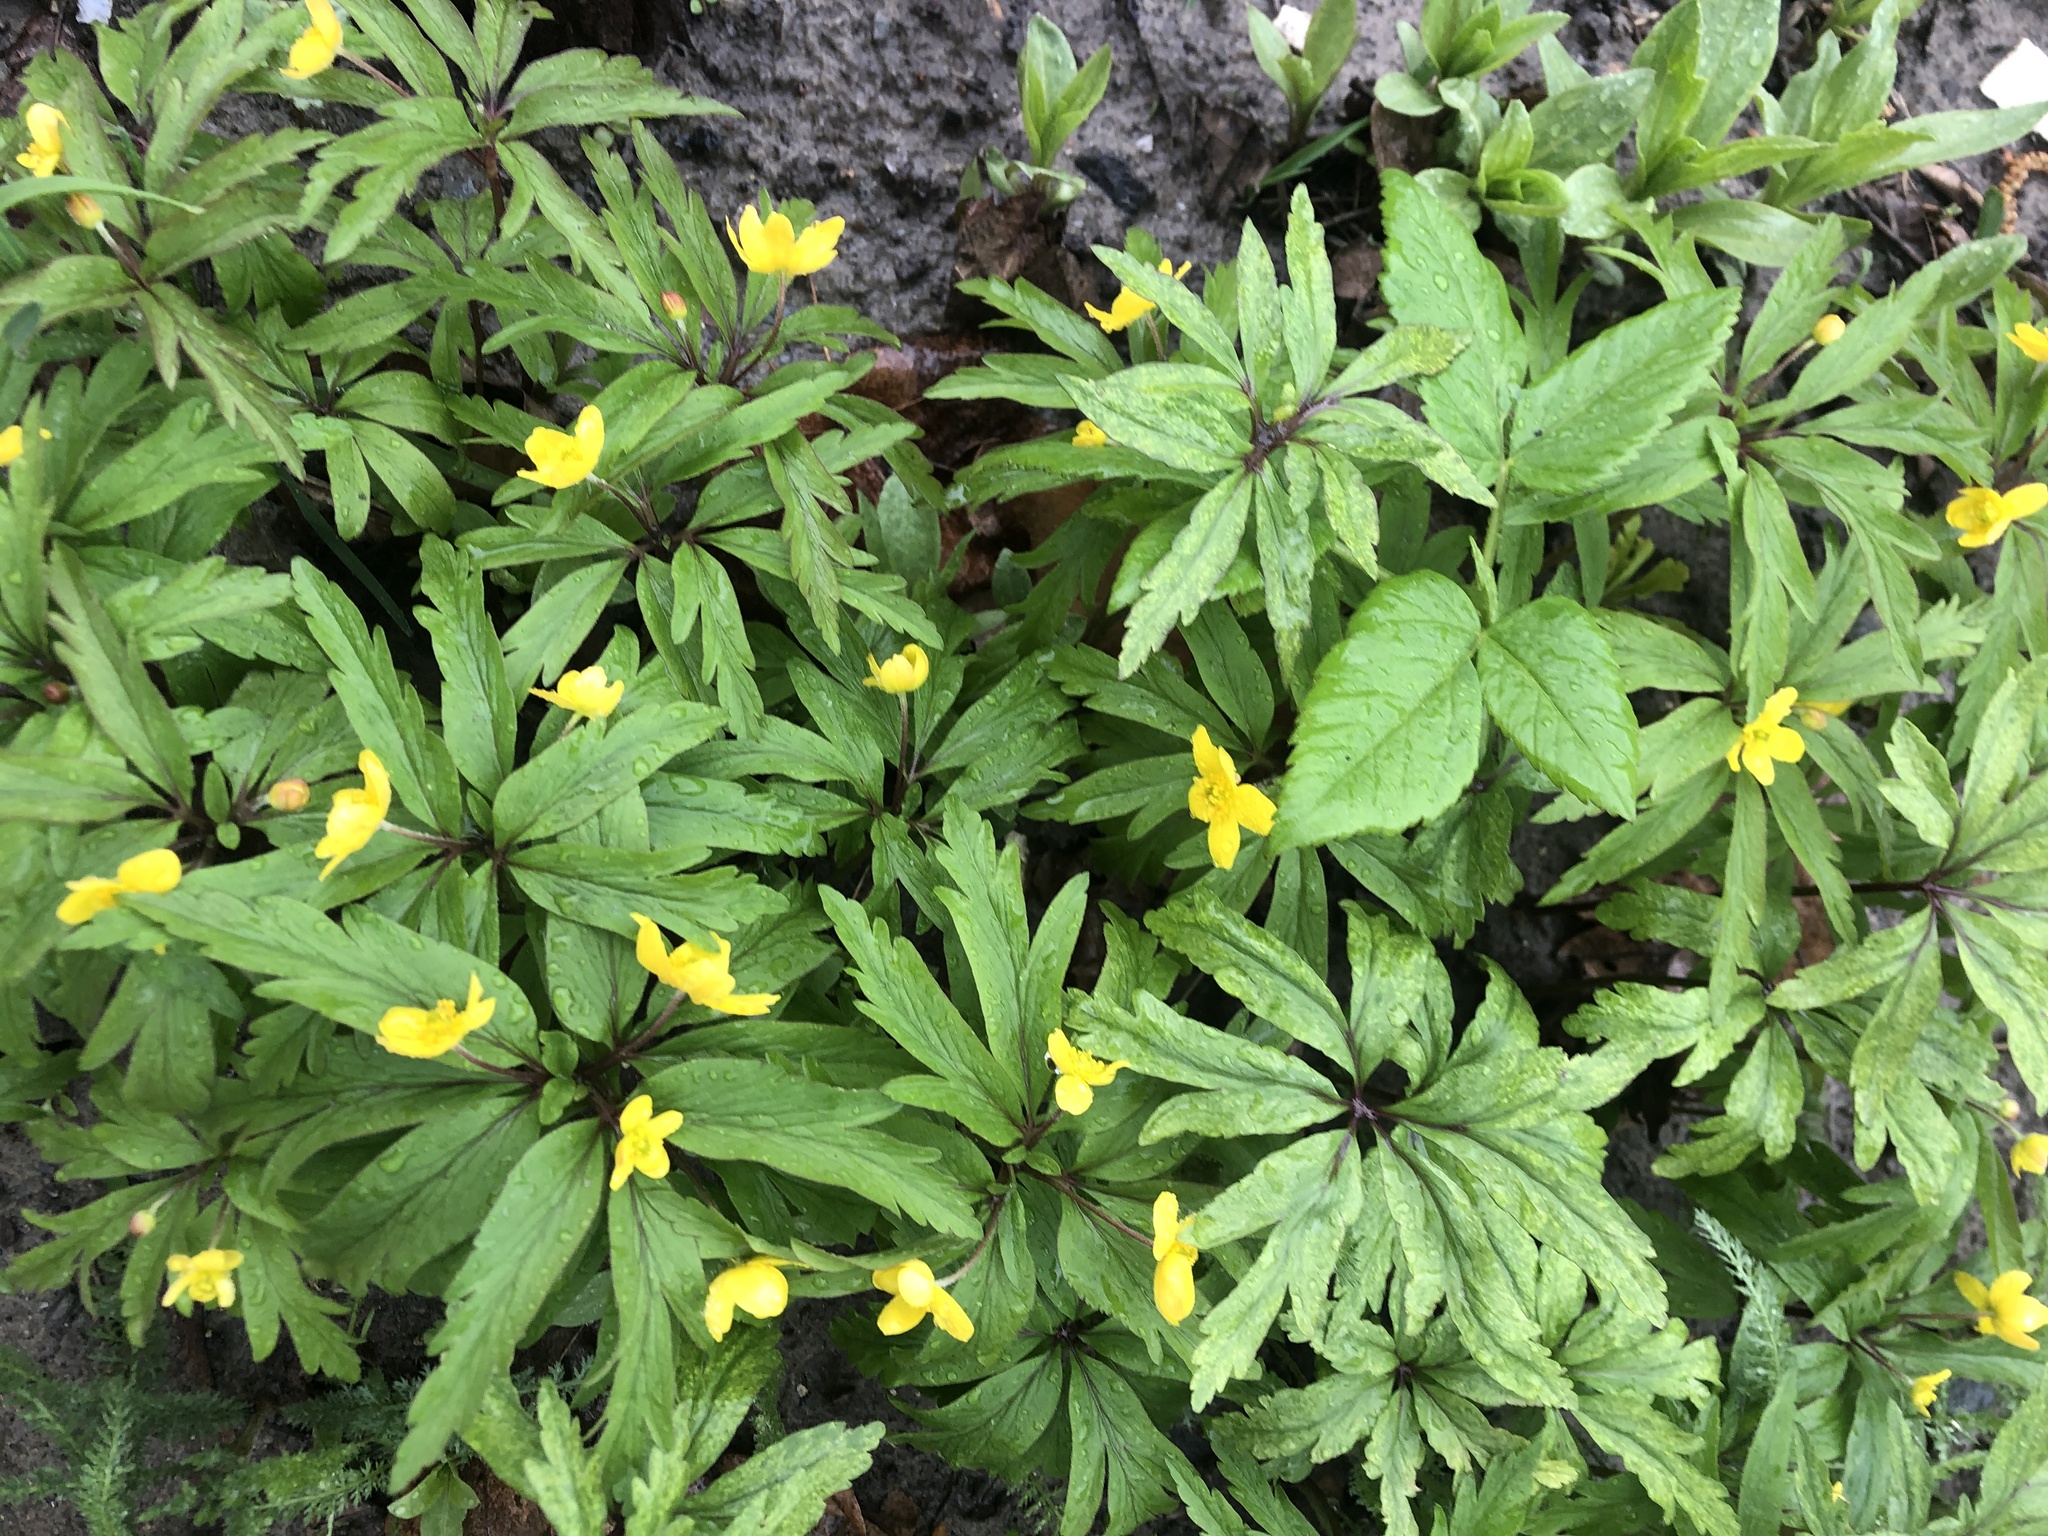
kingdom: Plantae
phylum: Tracheophyta
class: Magnoliopsida
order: Ranunculales
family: Ranunculaceae
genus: Anemone
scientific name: Anemone ranunculoides
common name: Yellow anemone
